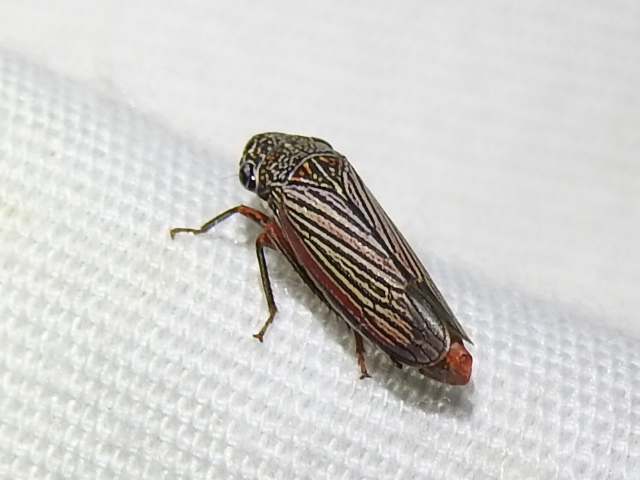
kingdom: Animalia
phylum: Arthropoda
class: Insecta
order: Hemiptera
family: Cicadellidae
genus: Cuerna
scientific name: Cuerna costalis
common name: Lateral-lined sharpshooter
